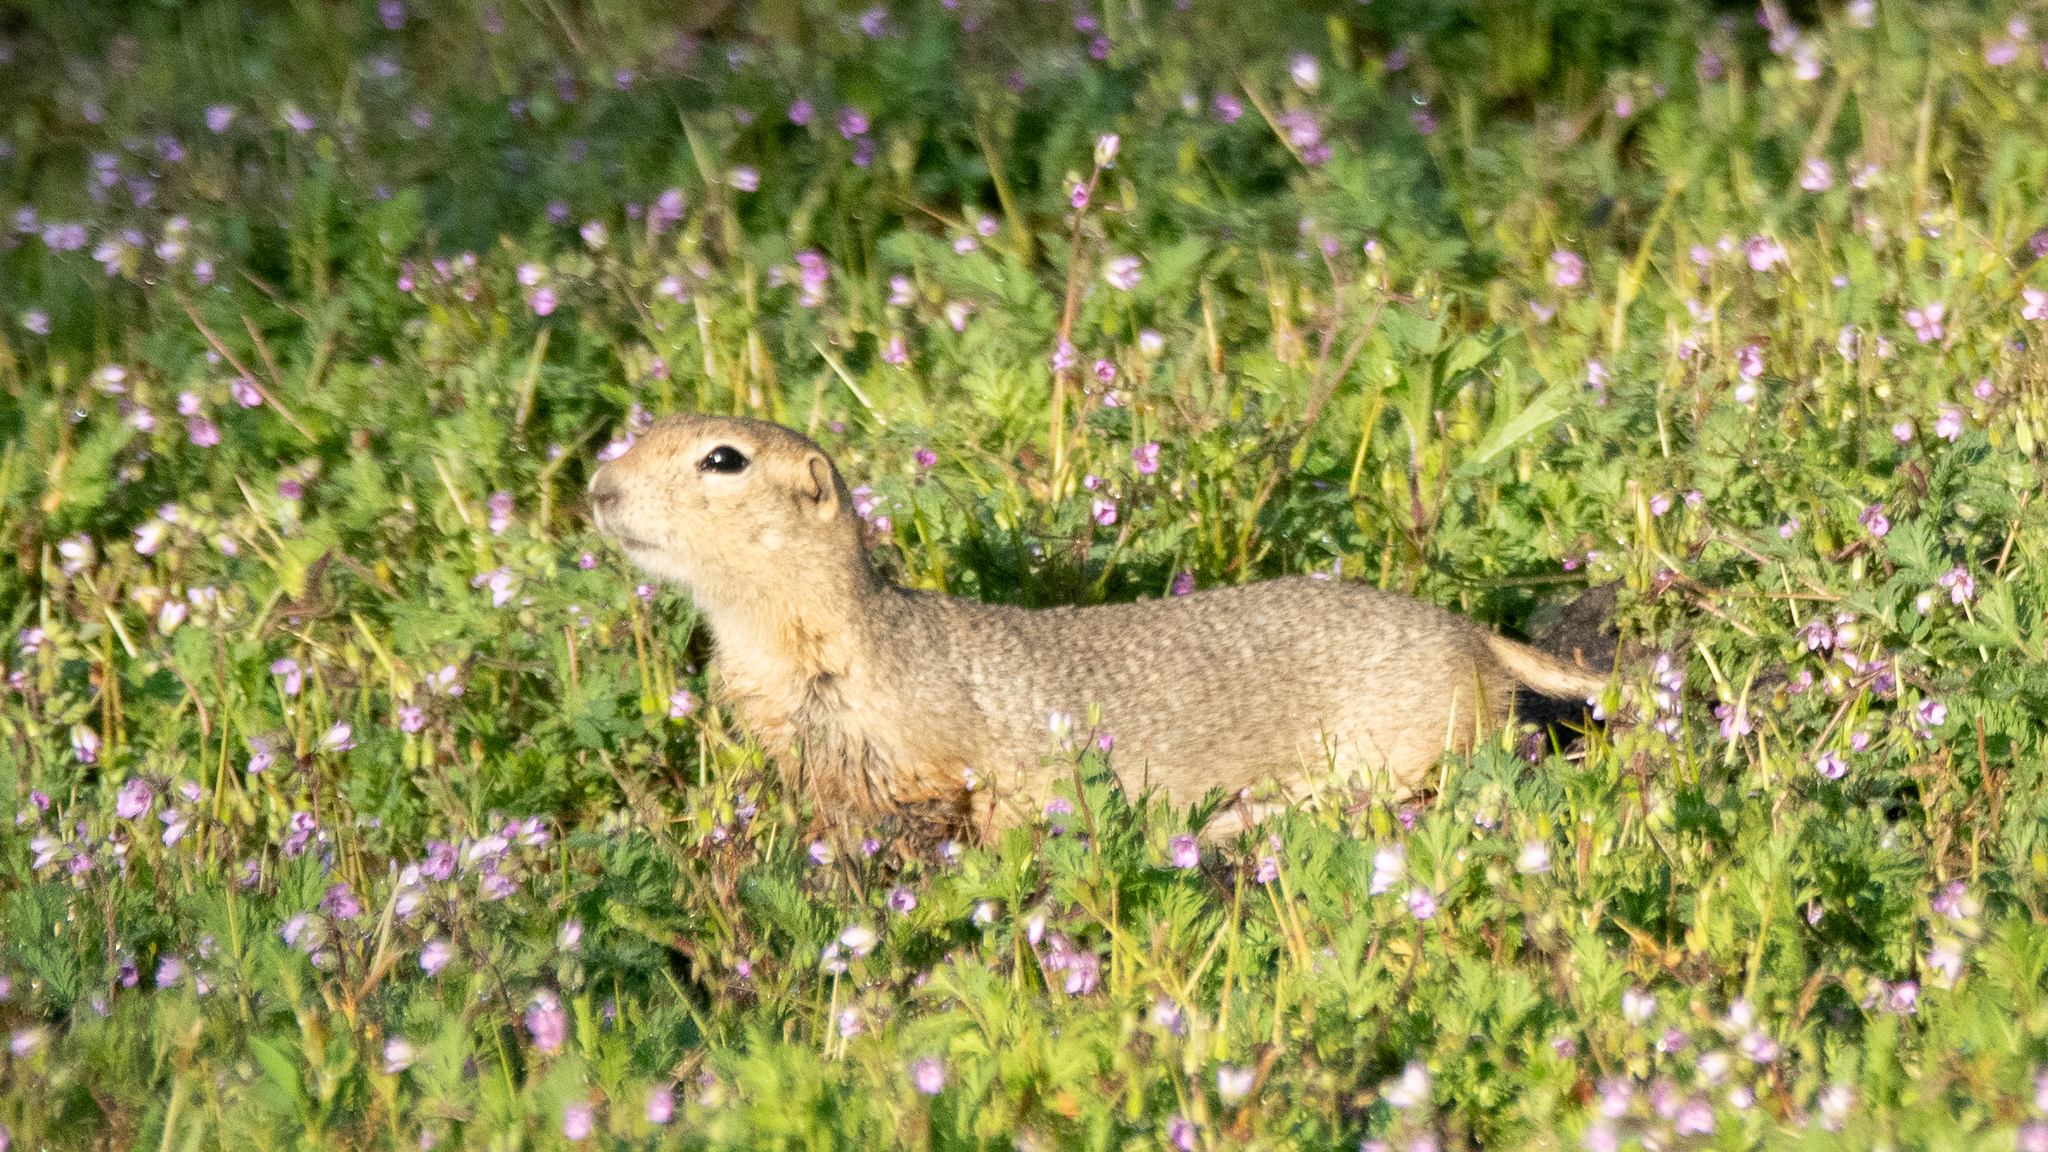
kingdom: Animalia
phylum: Chordata
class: Mammalia
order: Rodentia
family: Sciuridae
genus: Urocitellus
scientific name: Urocitellus richardsonii
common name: Richardson's ground squirrel
